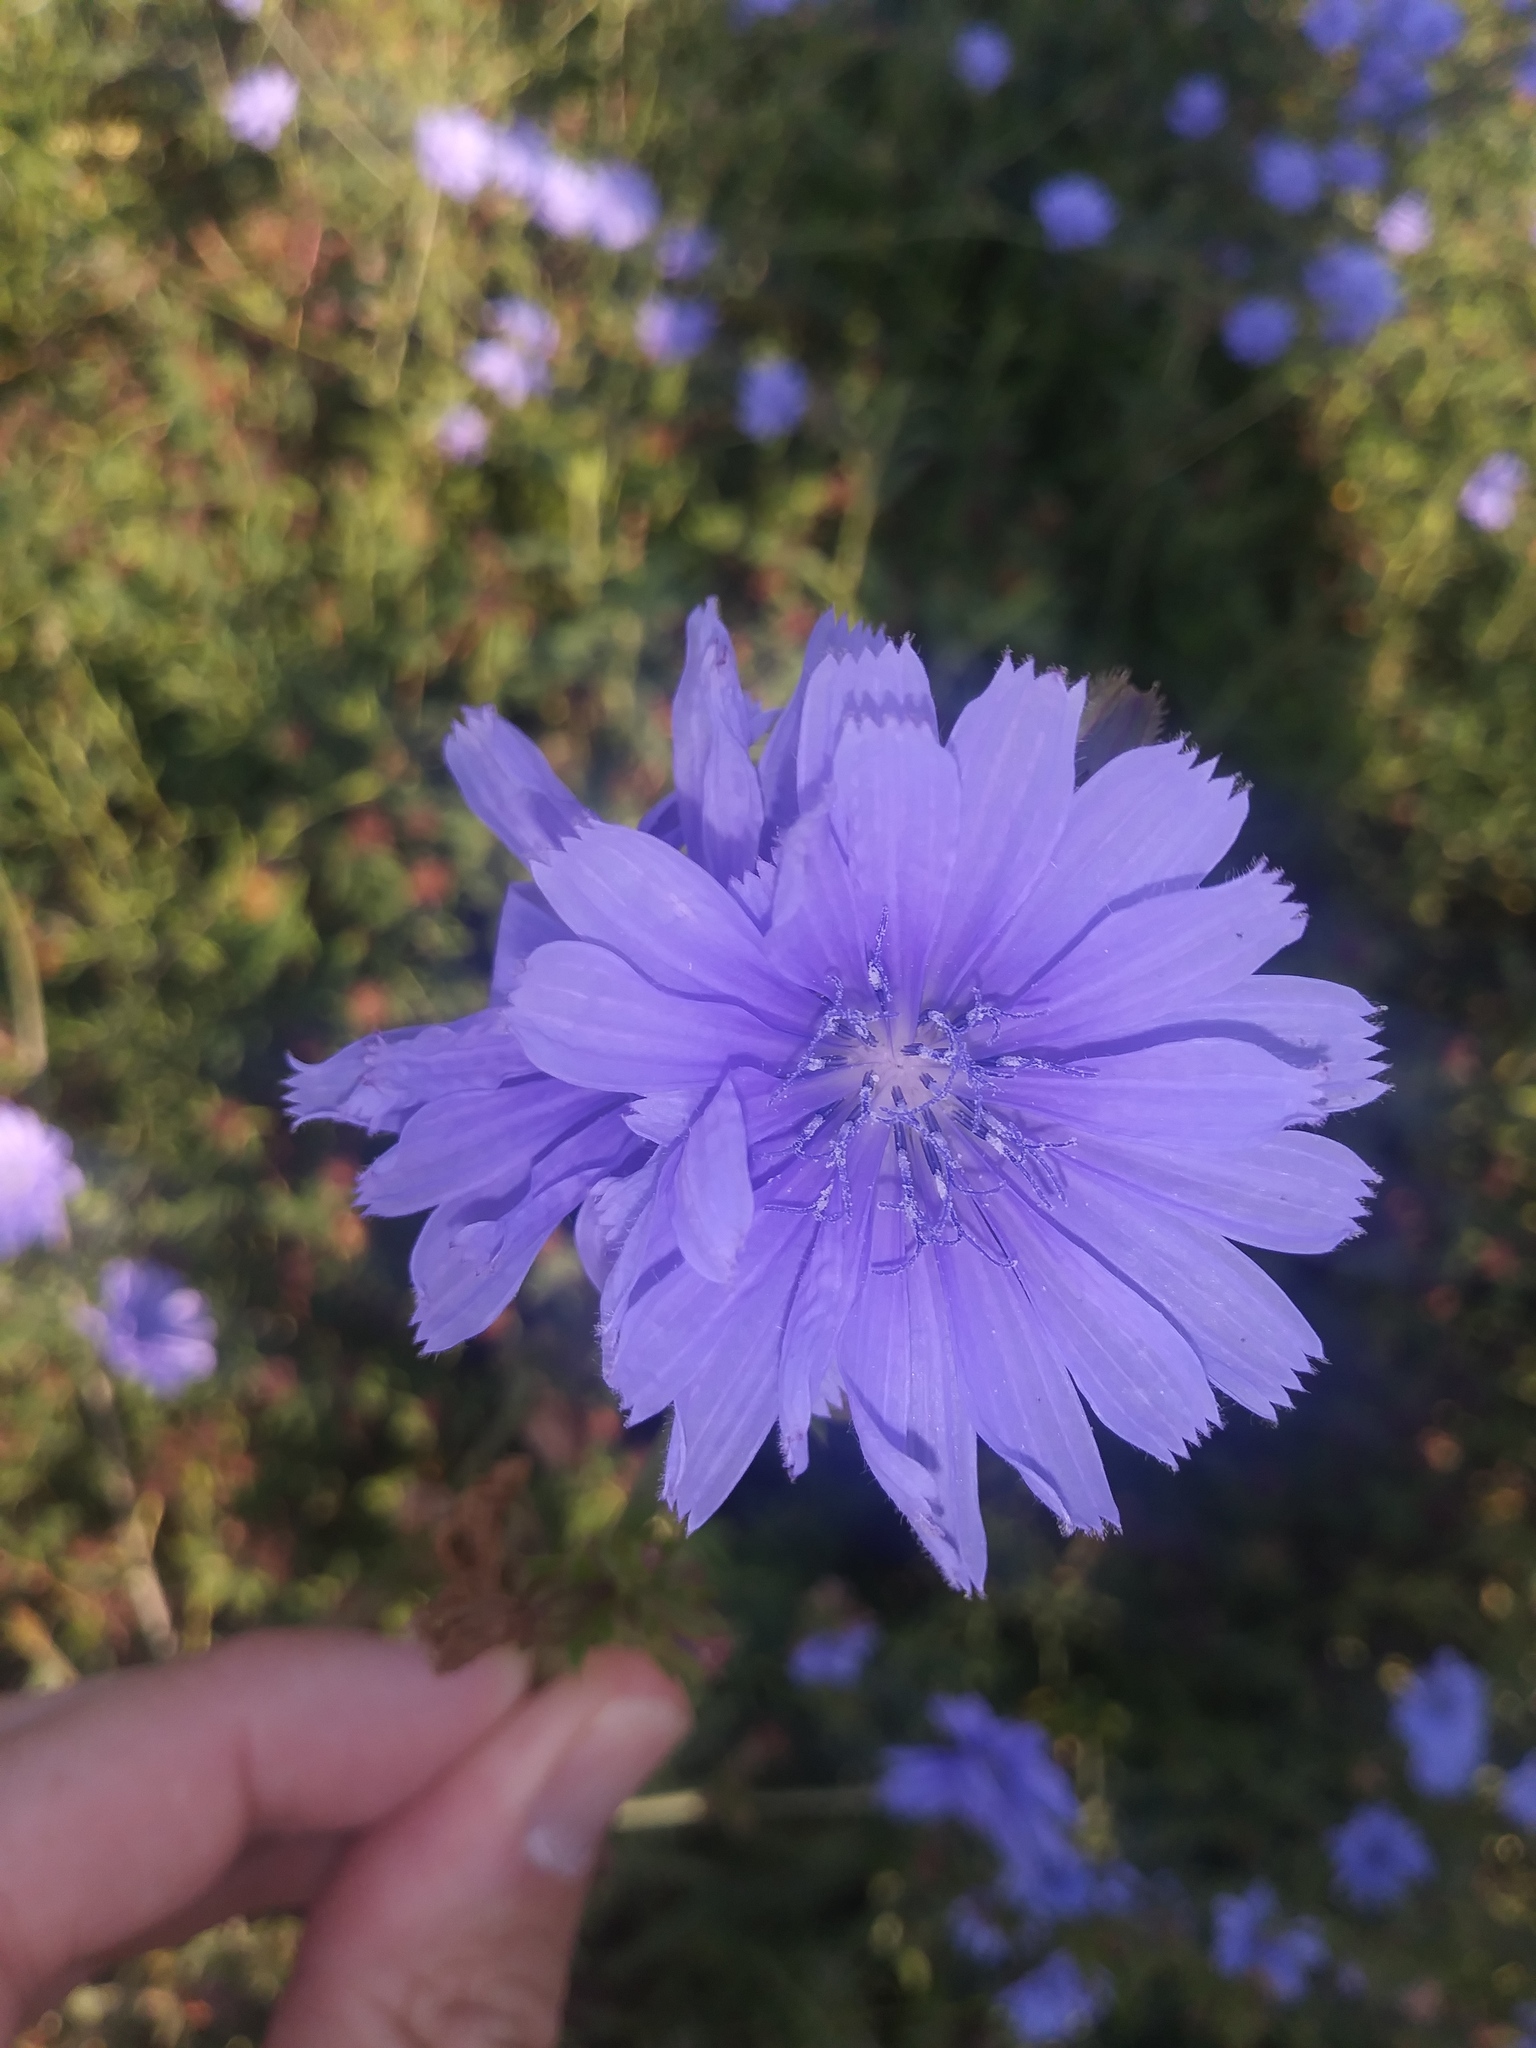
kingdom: Plantae
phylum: Tracheophyta
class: Magnoliopsida
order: Asterales
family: Asteraceae
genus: Cichorium
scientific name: Cichorium intybus
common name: Chicory
